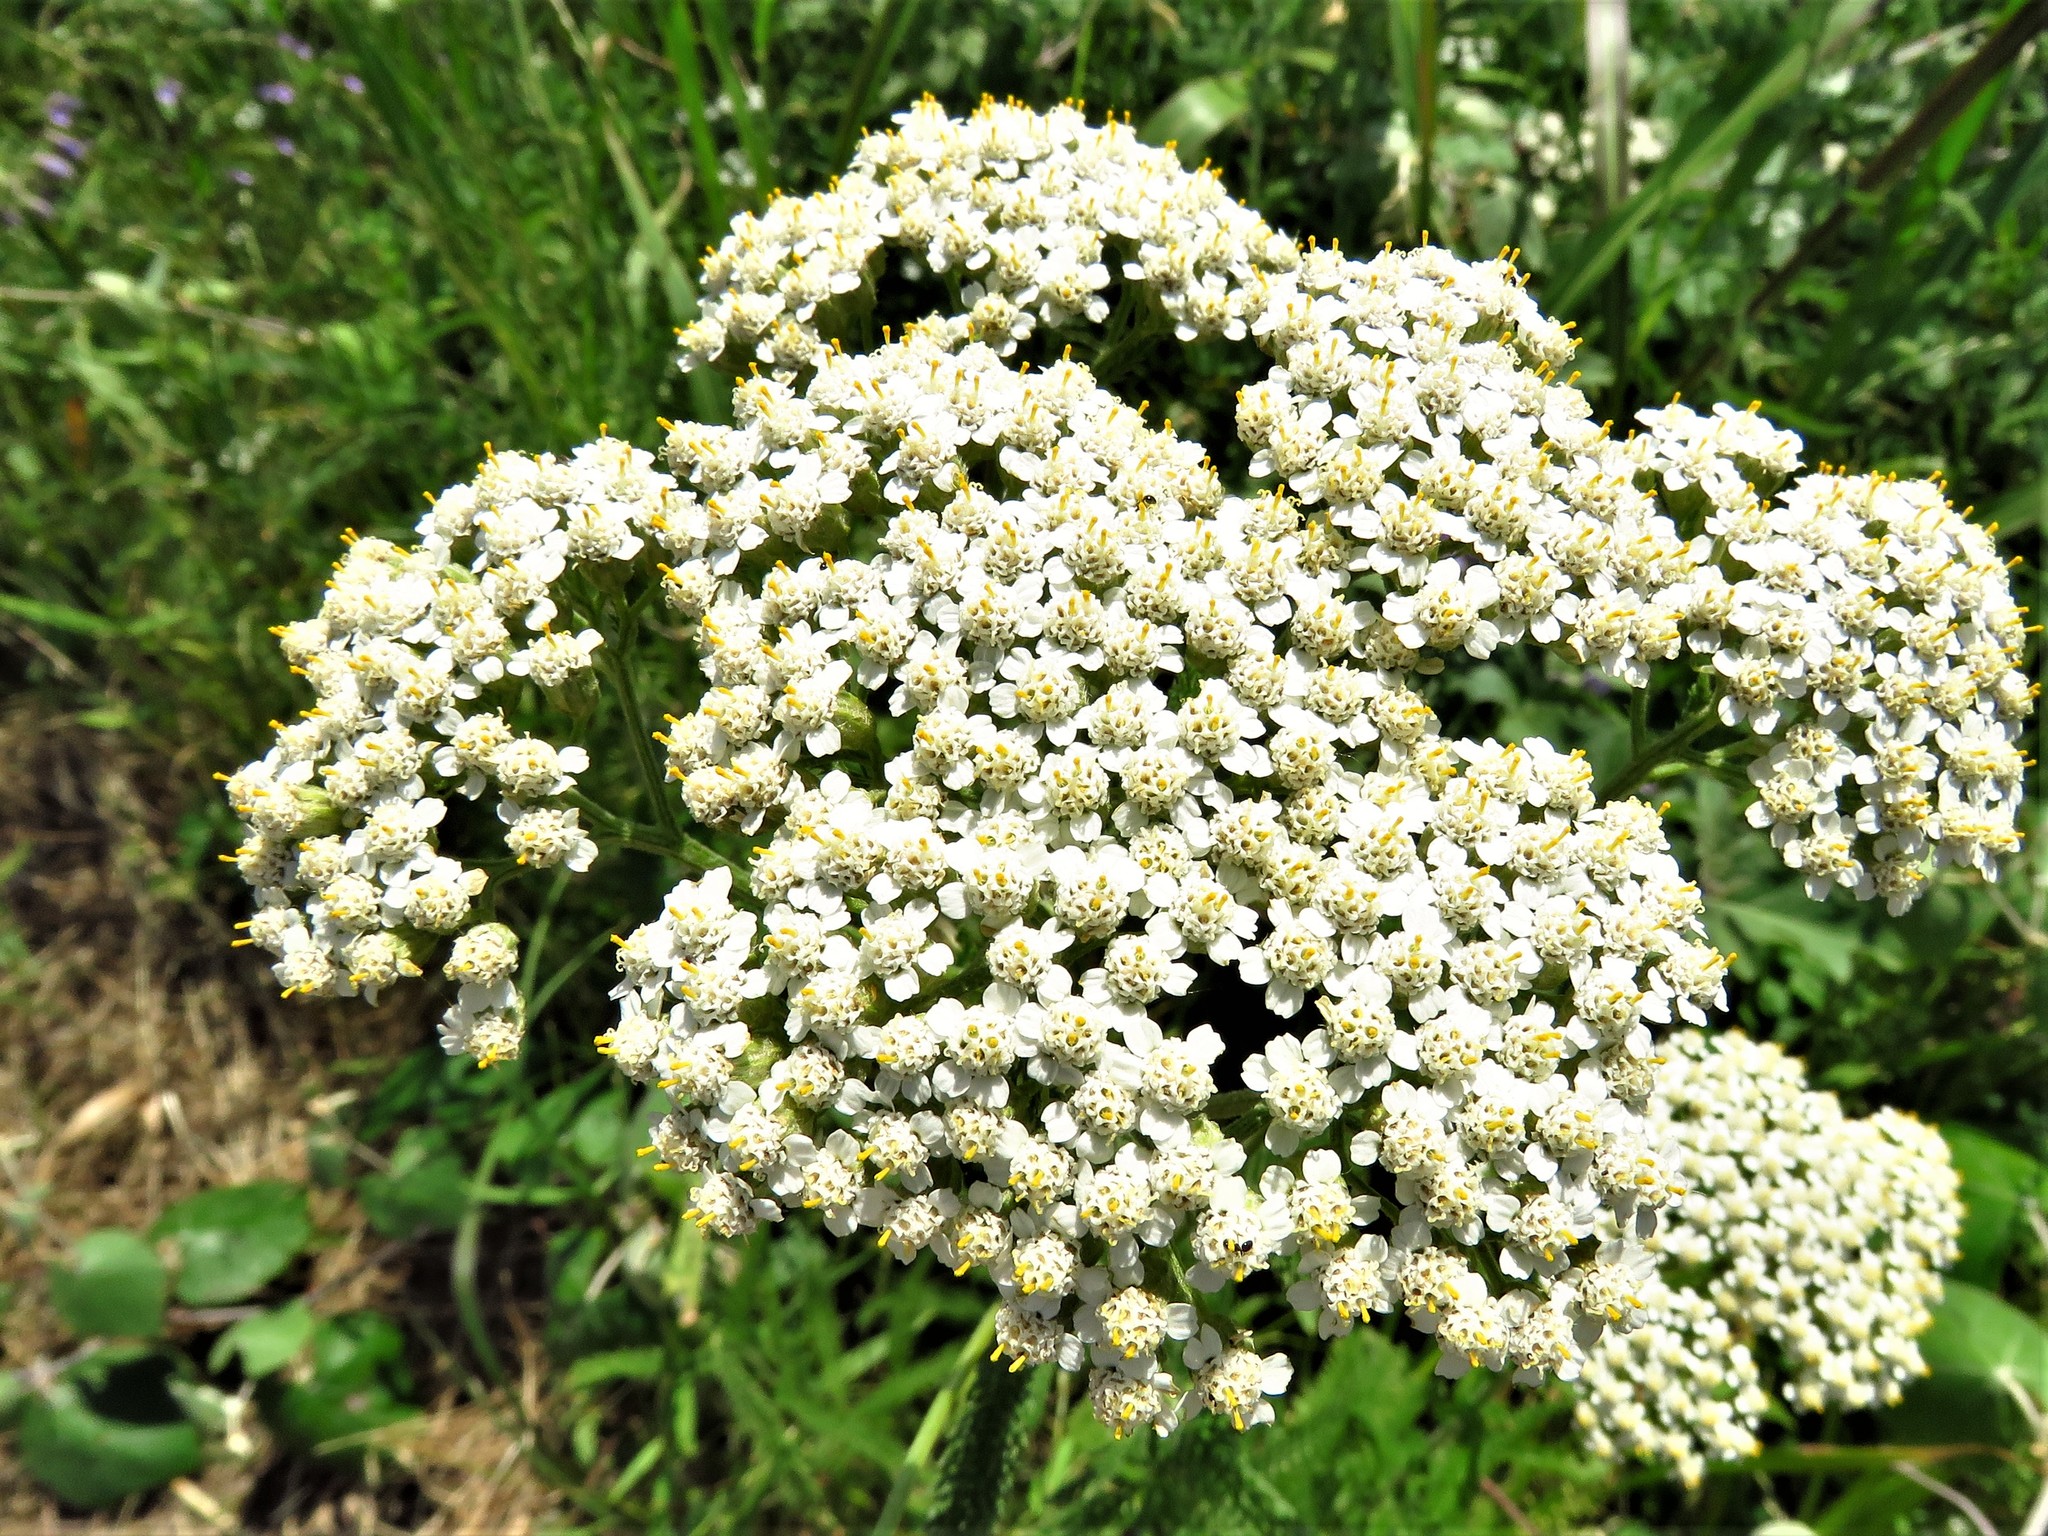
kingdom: Plantae
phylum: Tracheophyta
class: Magnoliopsida
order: Asterales
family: Asteraceae
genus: Achillea
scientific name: Achillea millefolium
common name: Yarrow
